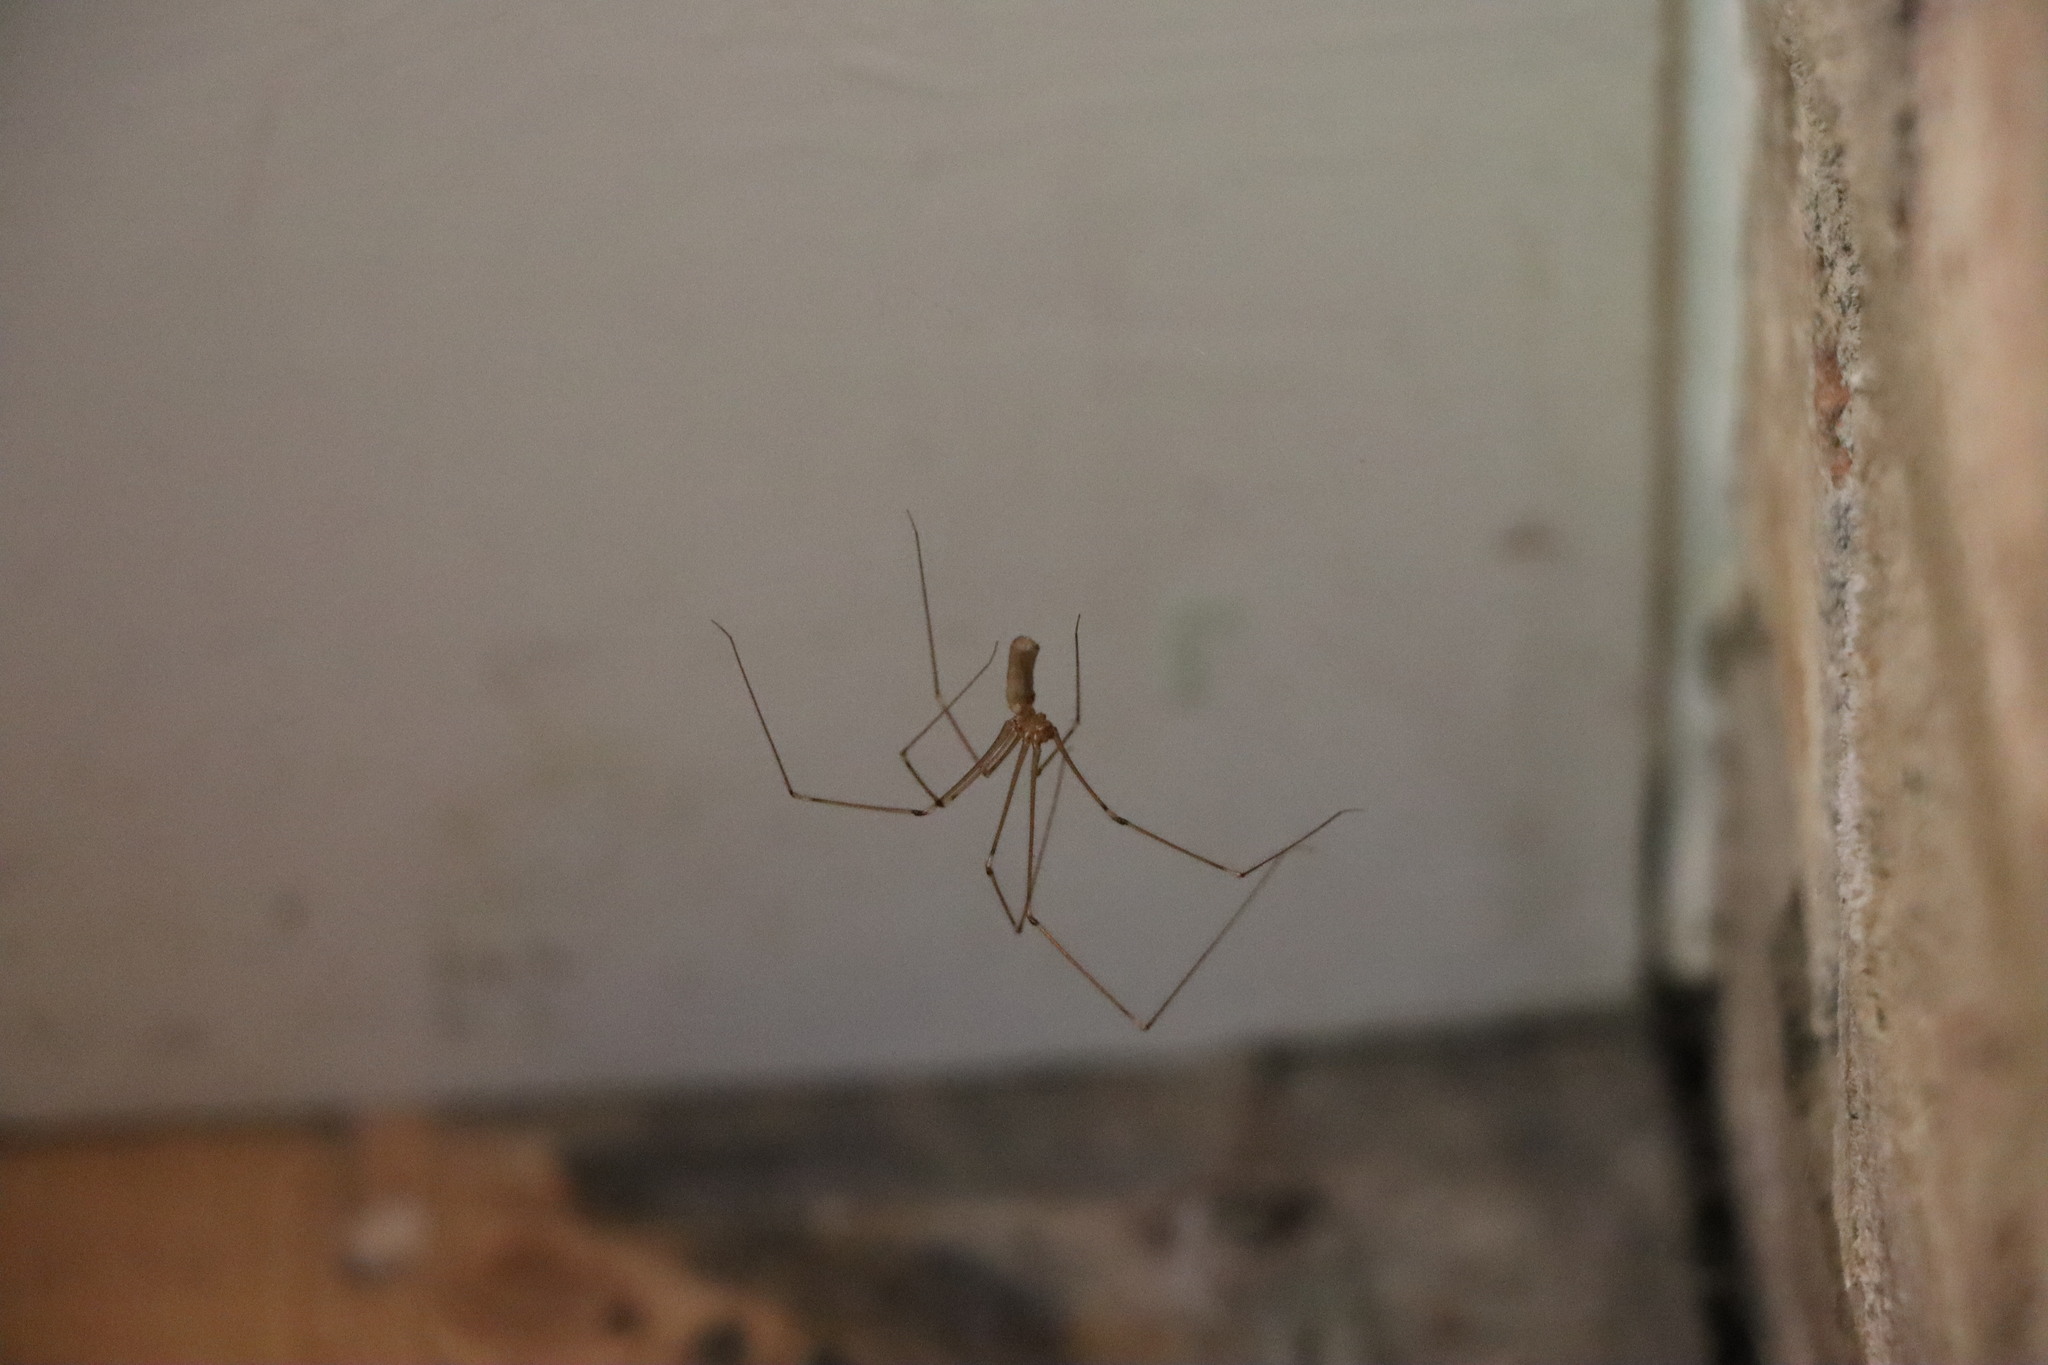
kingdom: Animalia
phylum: Arthropoda
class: Arachnida
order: Araneae
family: Pholcidae
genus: Pholcus
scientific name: Pholcus phalangioides
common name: Longbodied cellar spider
